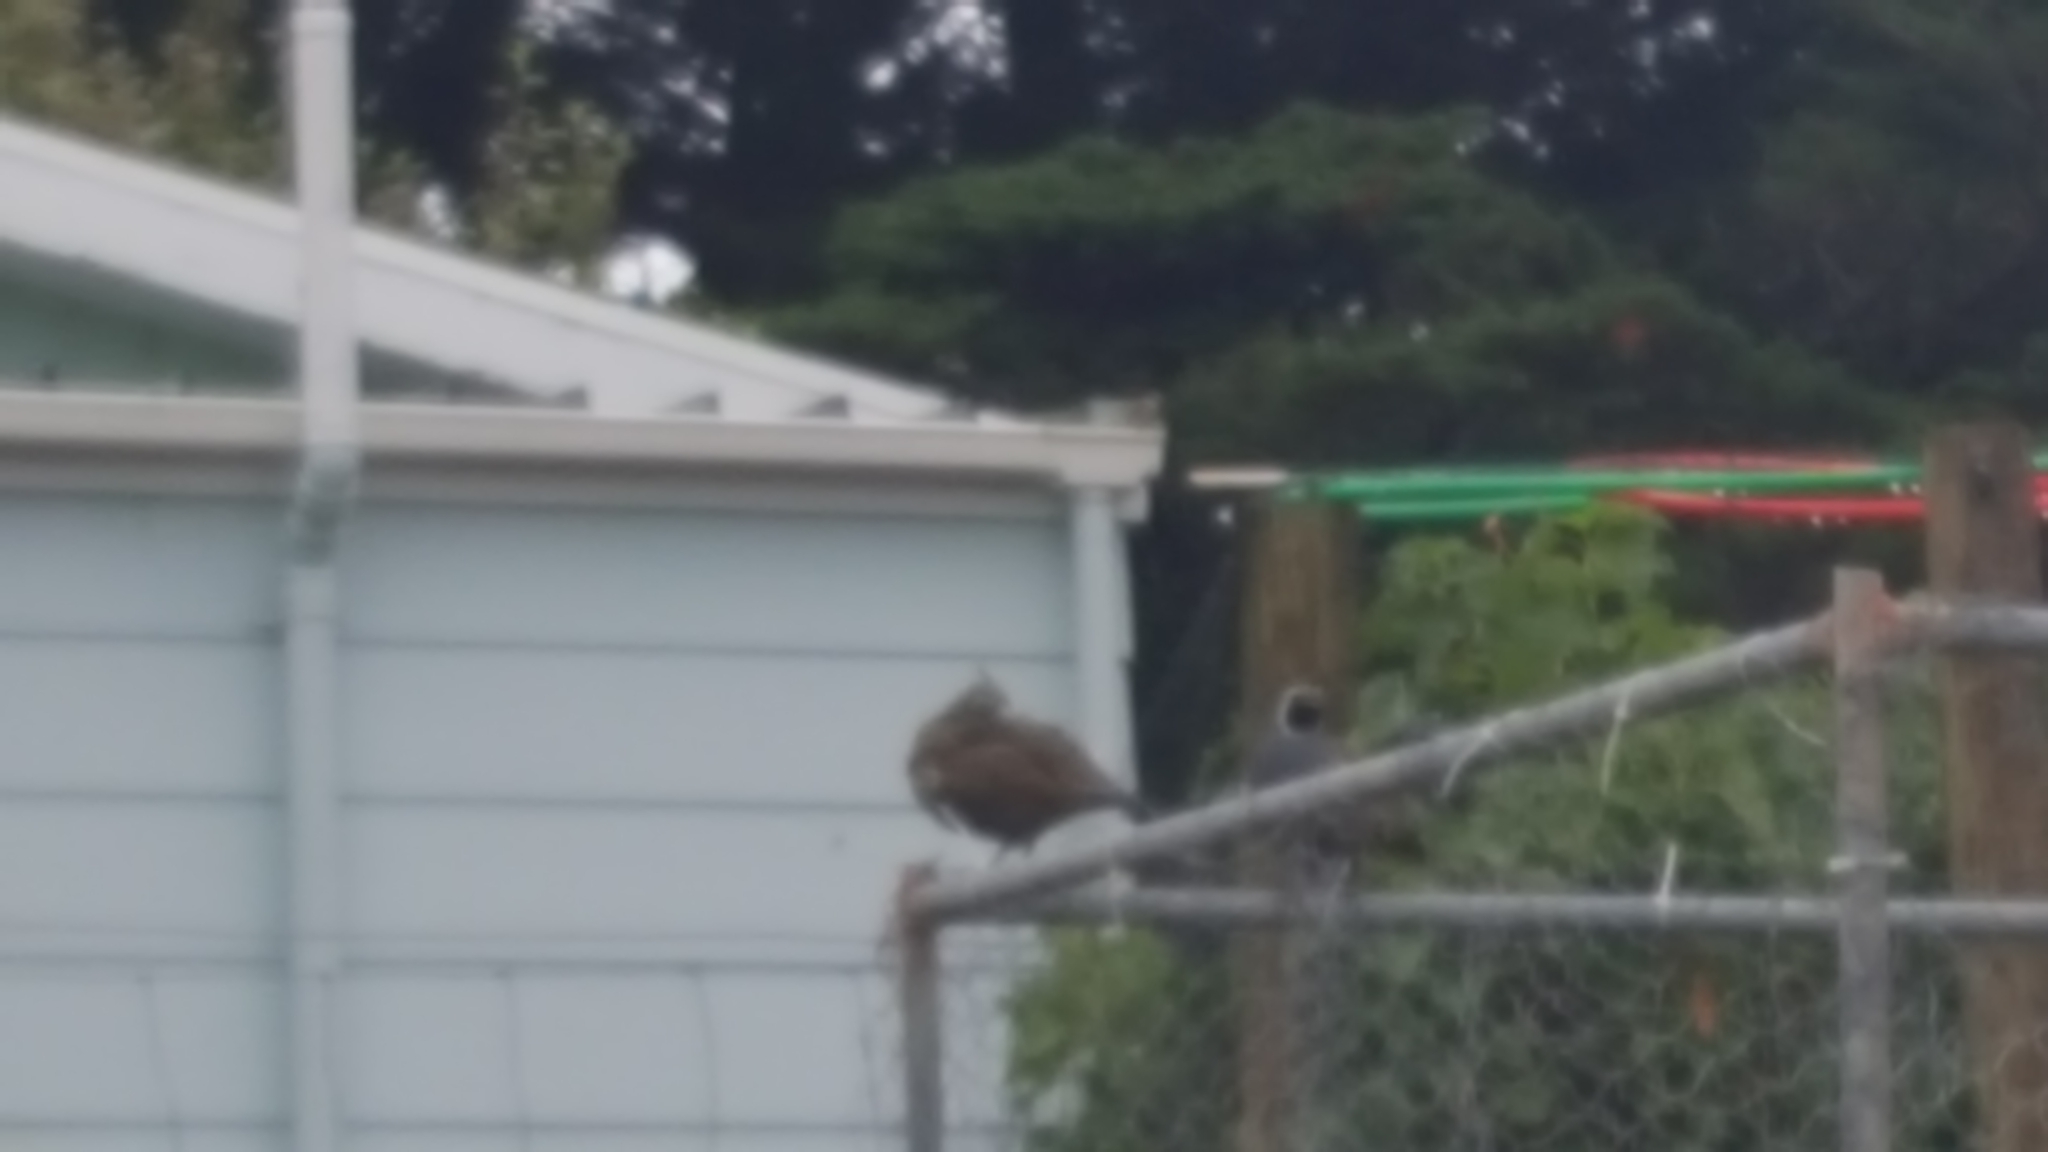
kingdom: Animalia
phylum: Chordata
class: Aves
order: Galliformes
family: Odontophoridae
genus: Callipepla
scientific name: Callipepla californica
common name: California quail
